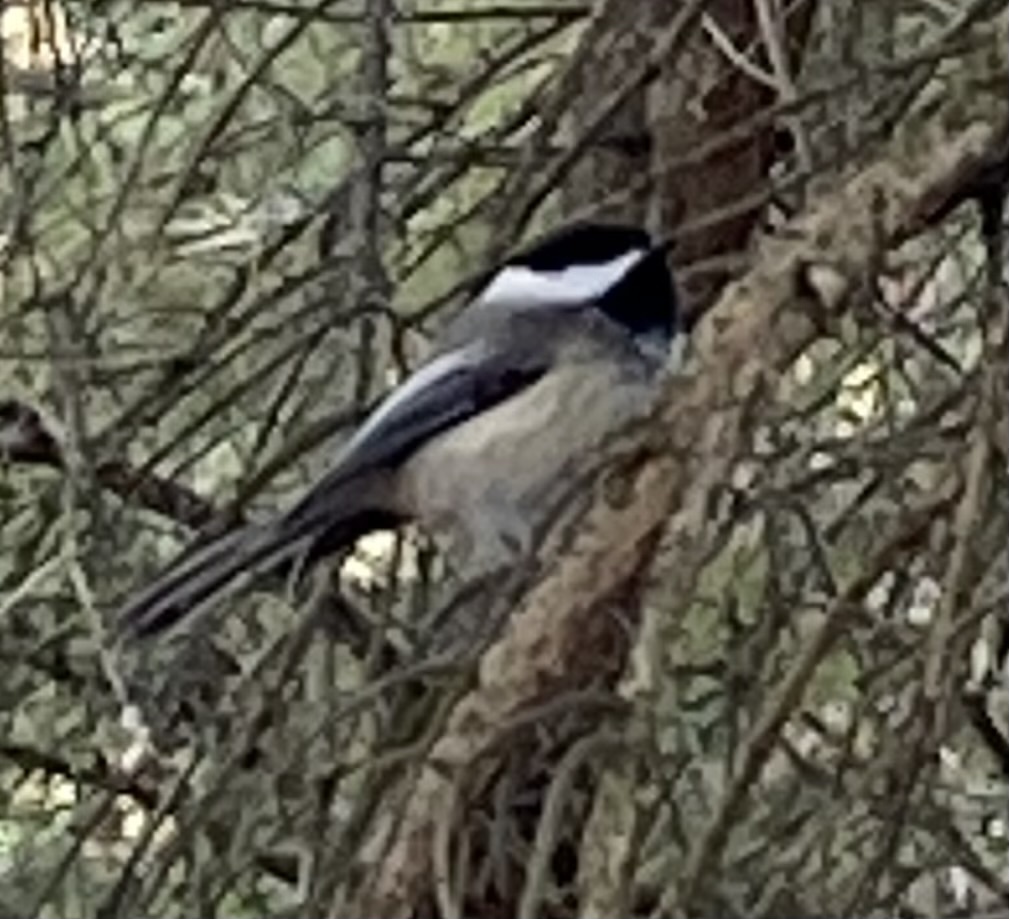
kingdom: Animalia
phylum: Chordata
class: Aves
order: Passeriformes
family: Paridae
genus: Poecile
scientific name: Poecile atricapillus
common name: Black-capped chickadee
